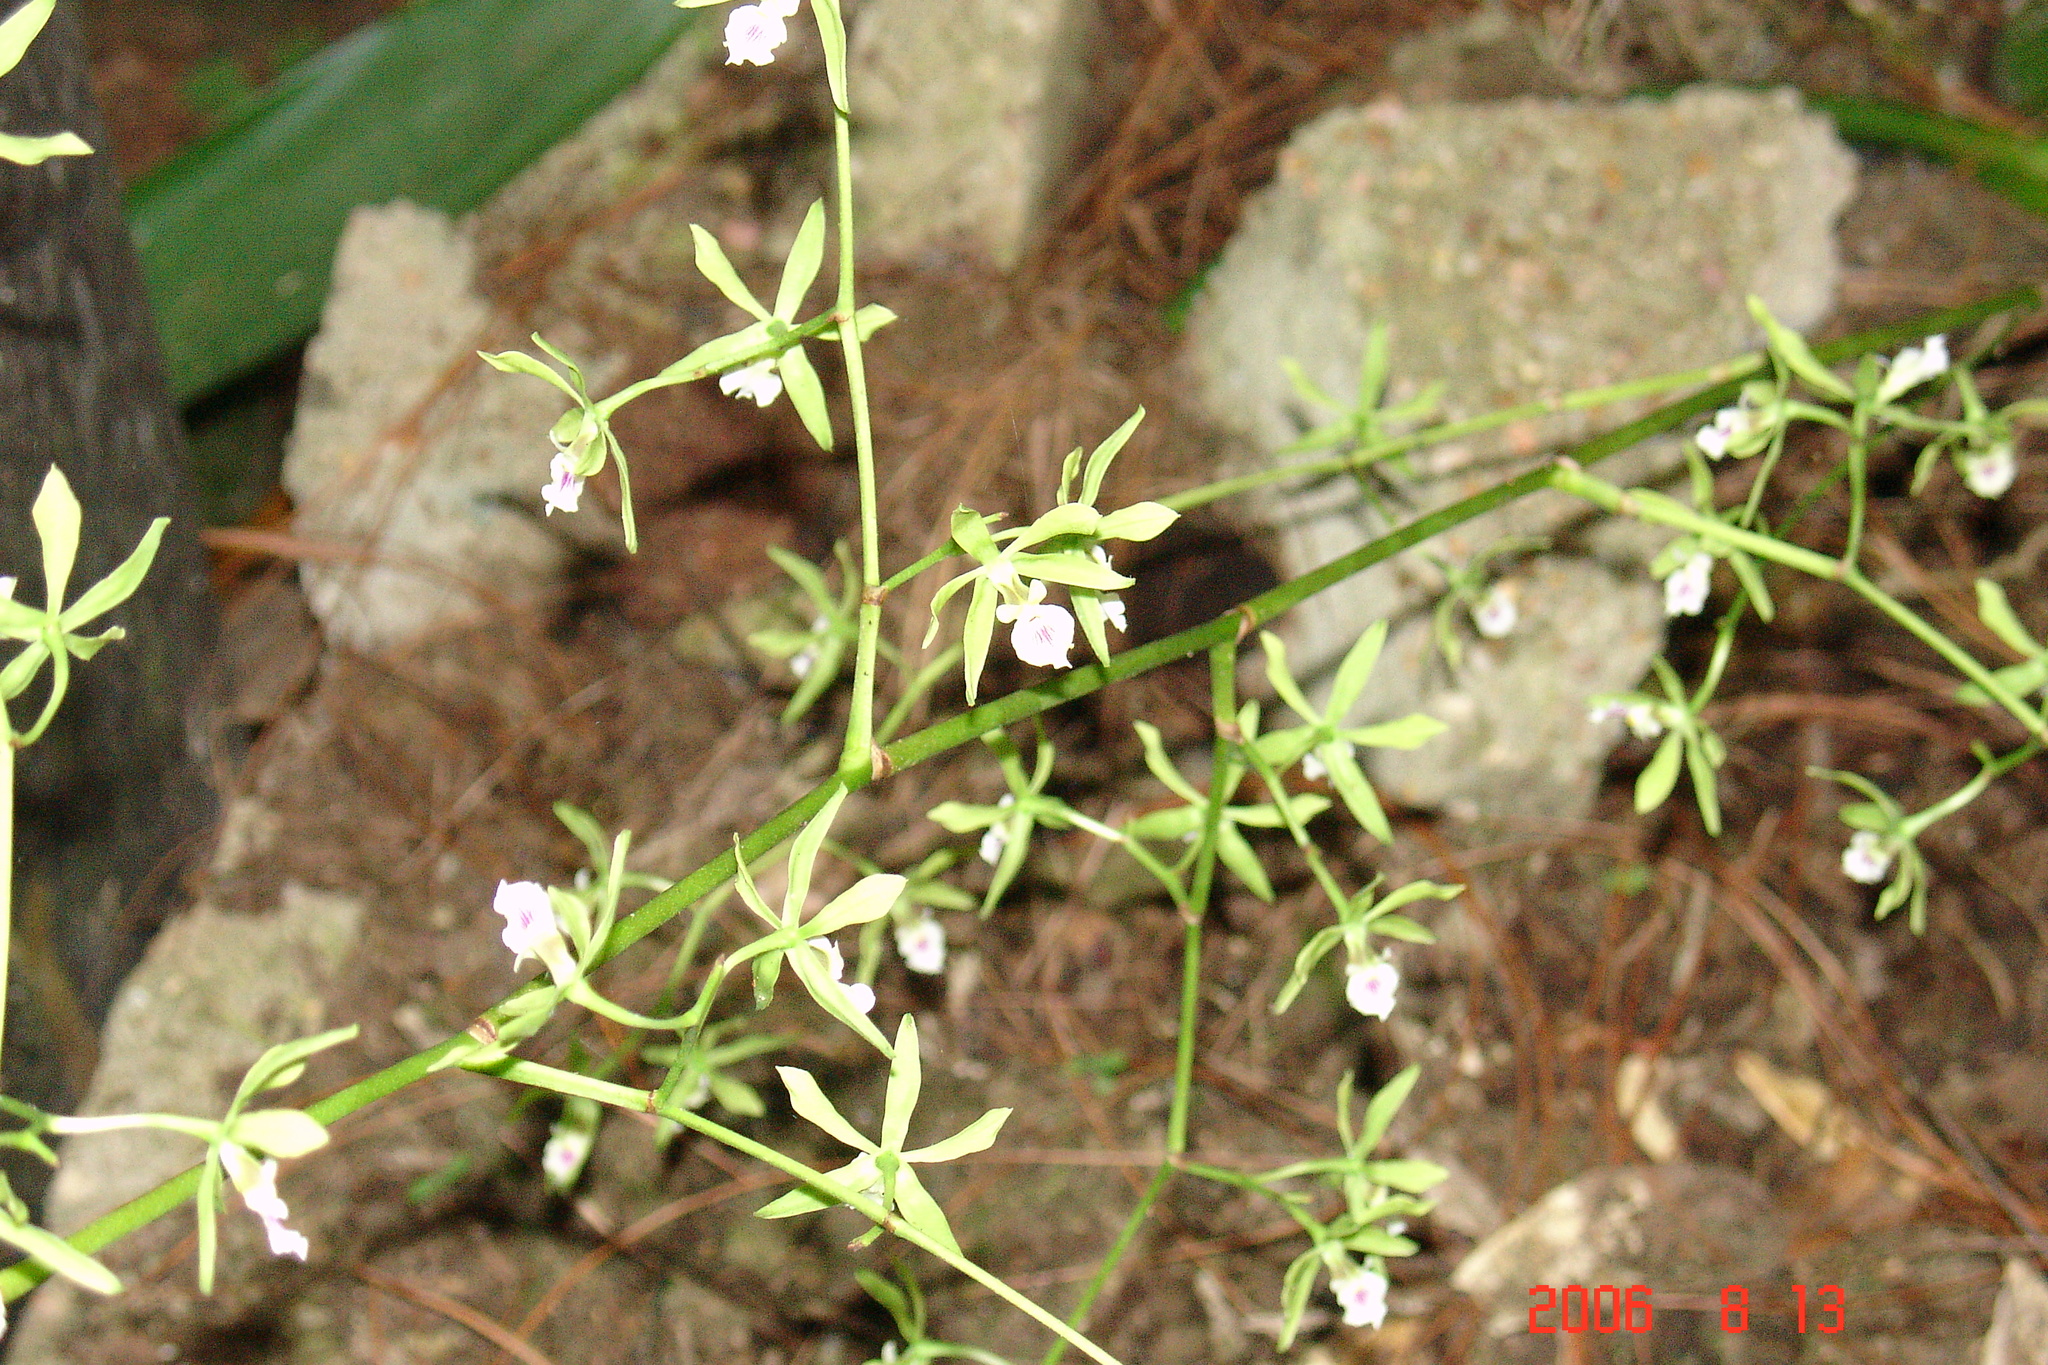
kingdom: Plantae
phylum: Tracheophyta
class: Liliopsida
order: Asparagales
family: Orchidaceae
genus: Encyclia
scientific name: Encyclia chloroleuca
